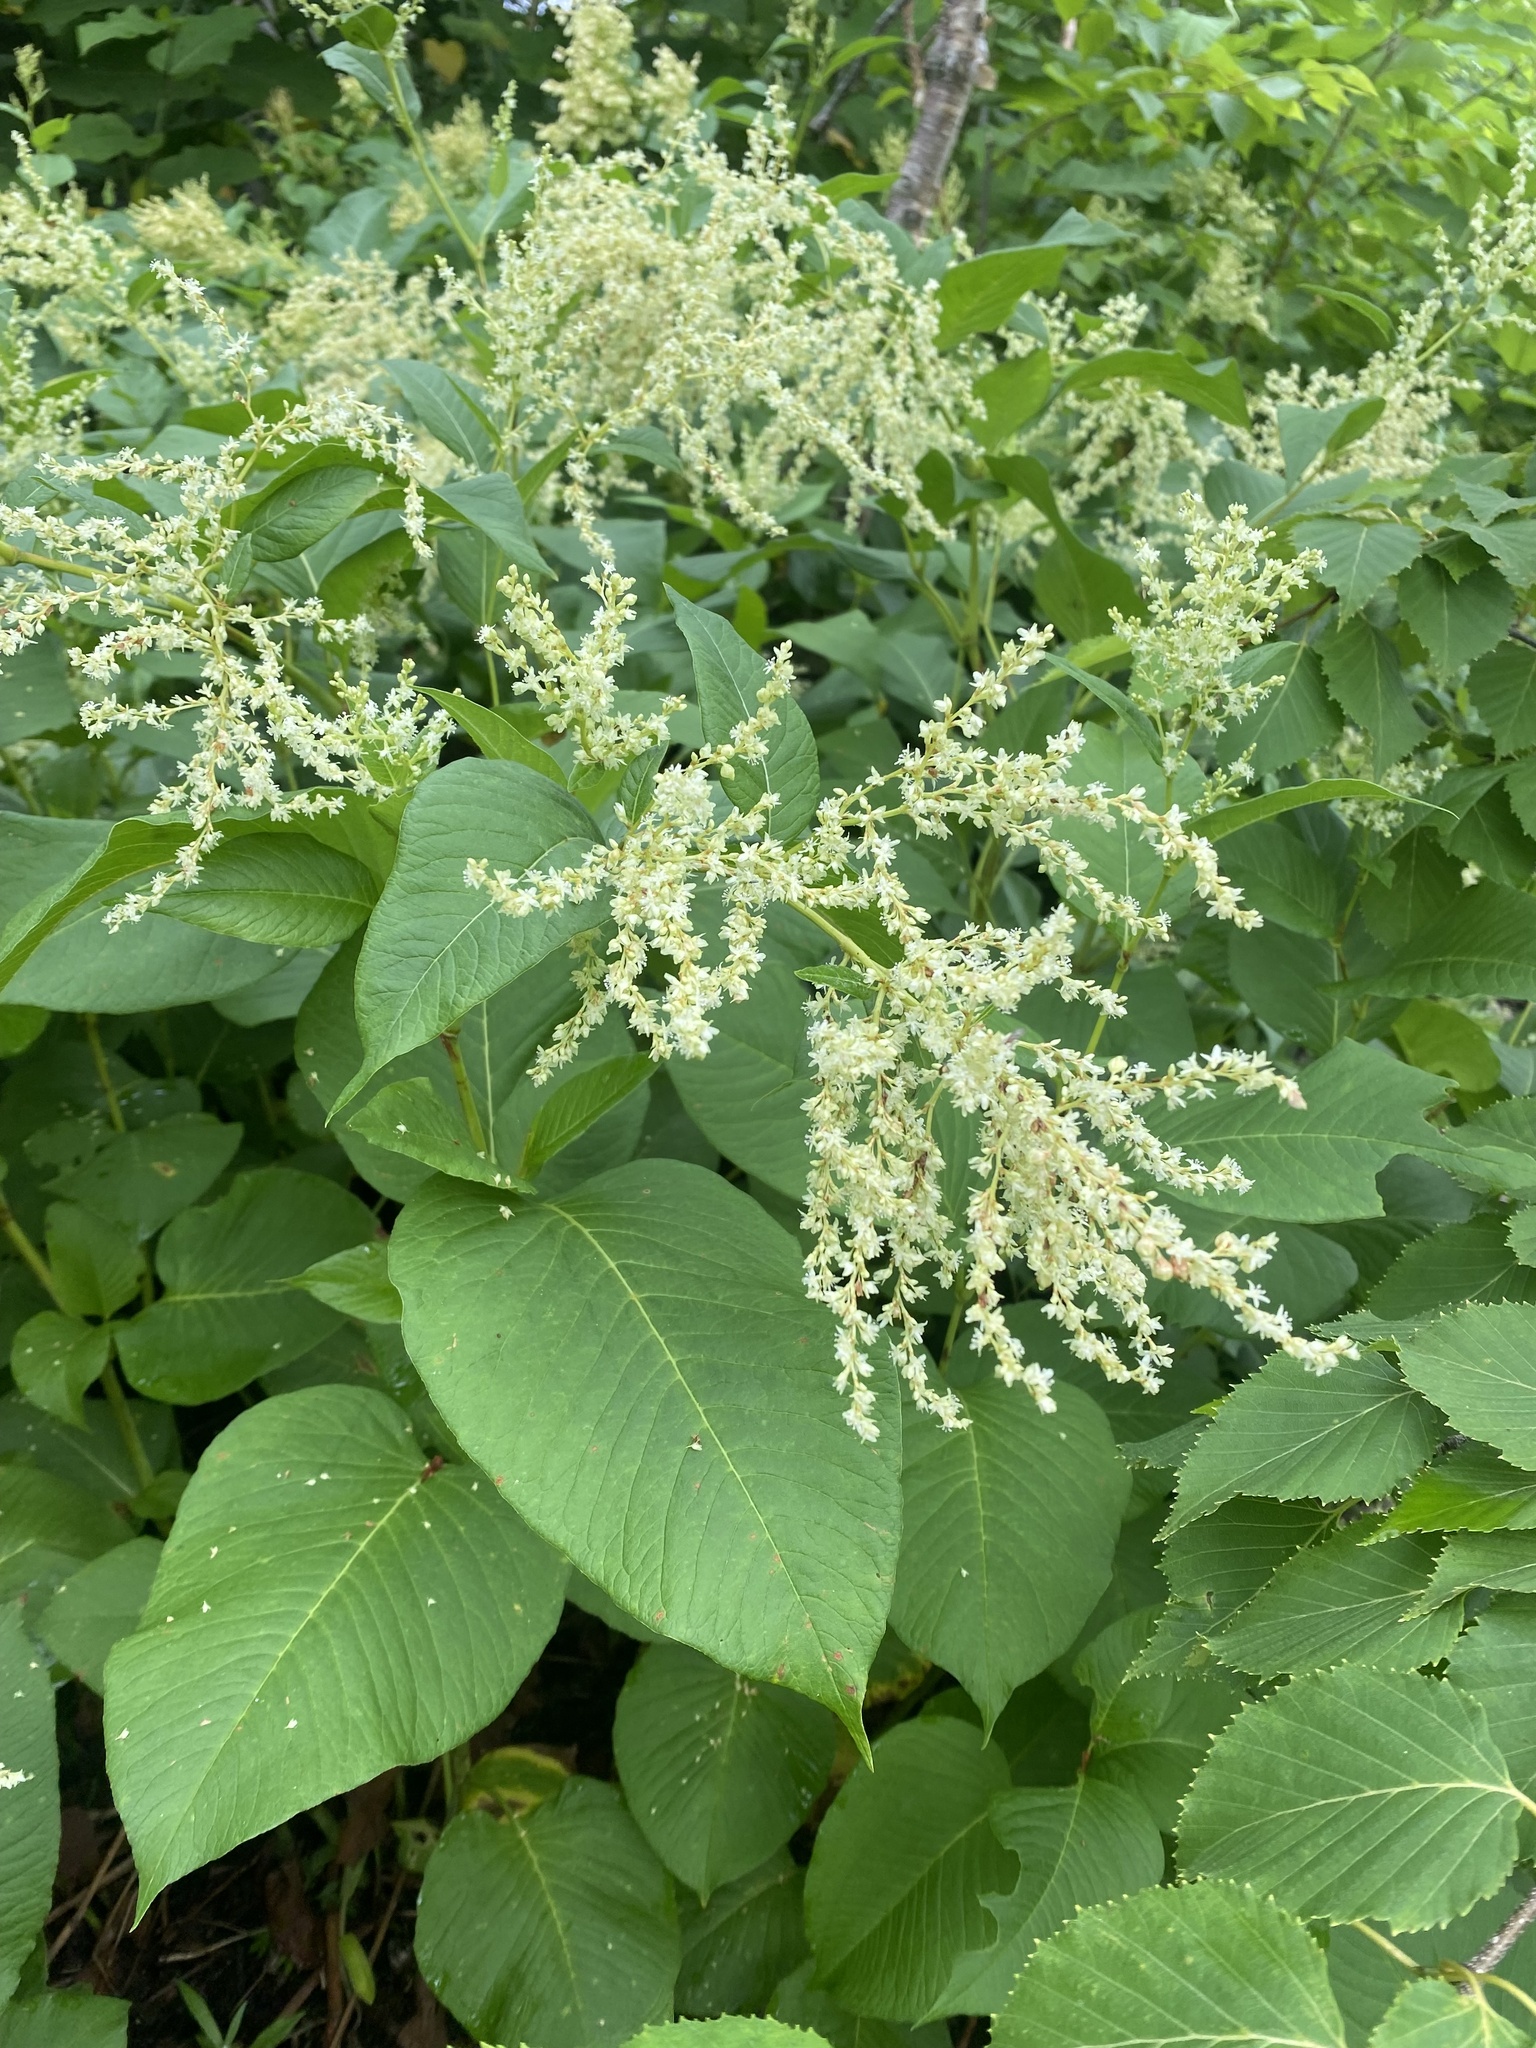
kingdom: Plantae
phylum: Tracheophyta
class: Magnoliopsida
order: Caryophyllales
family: Polygonaceae
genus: Koenigia
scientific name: Koenigia weyrichii
